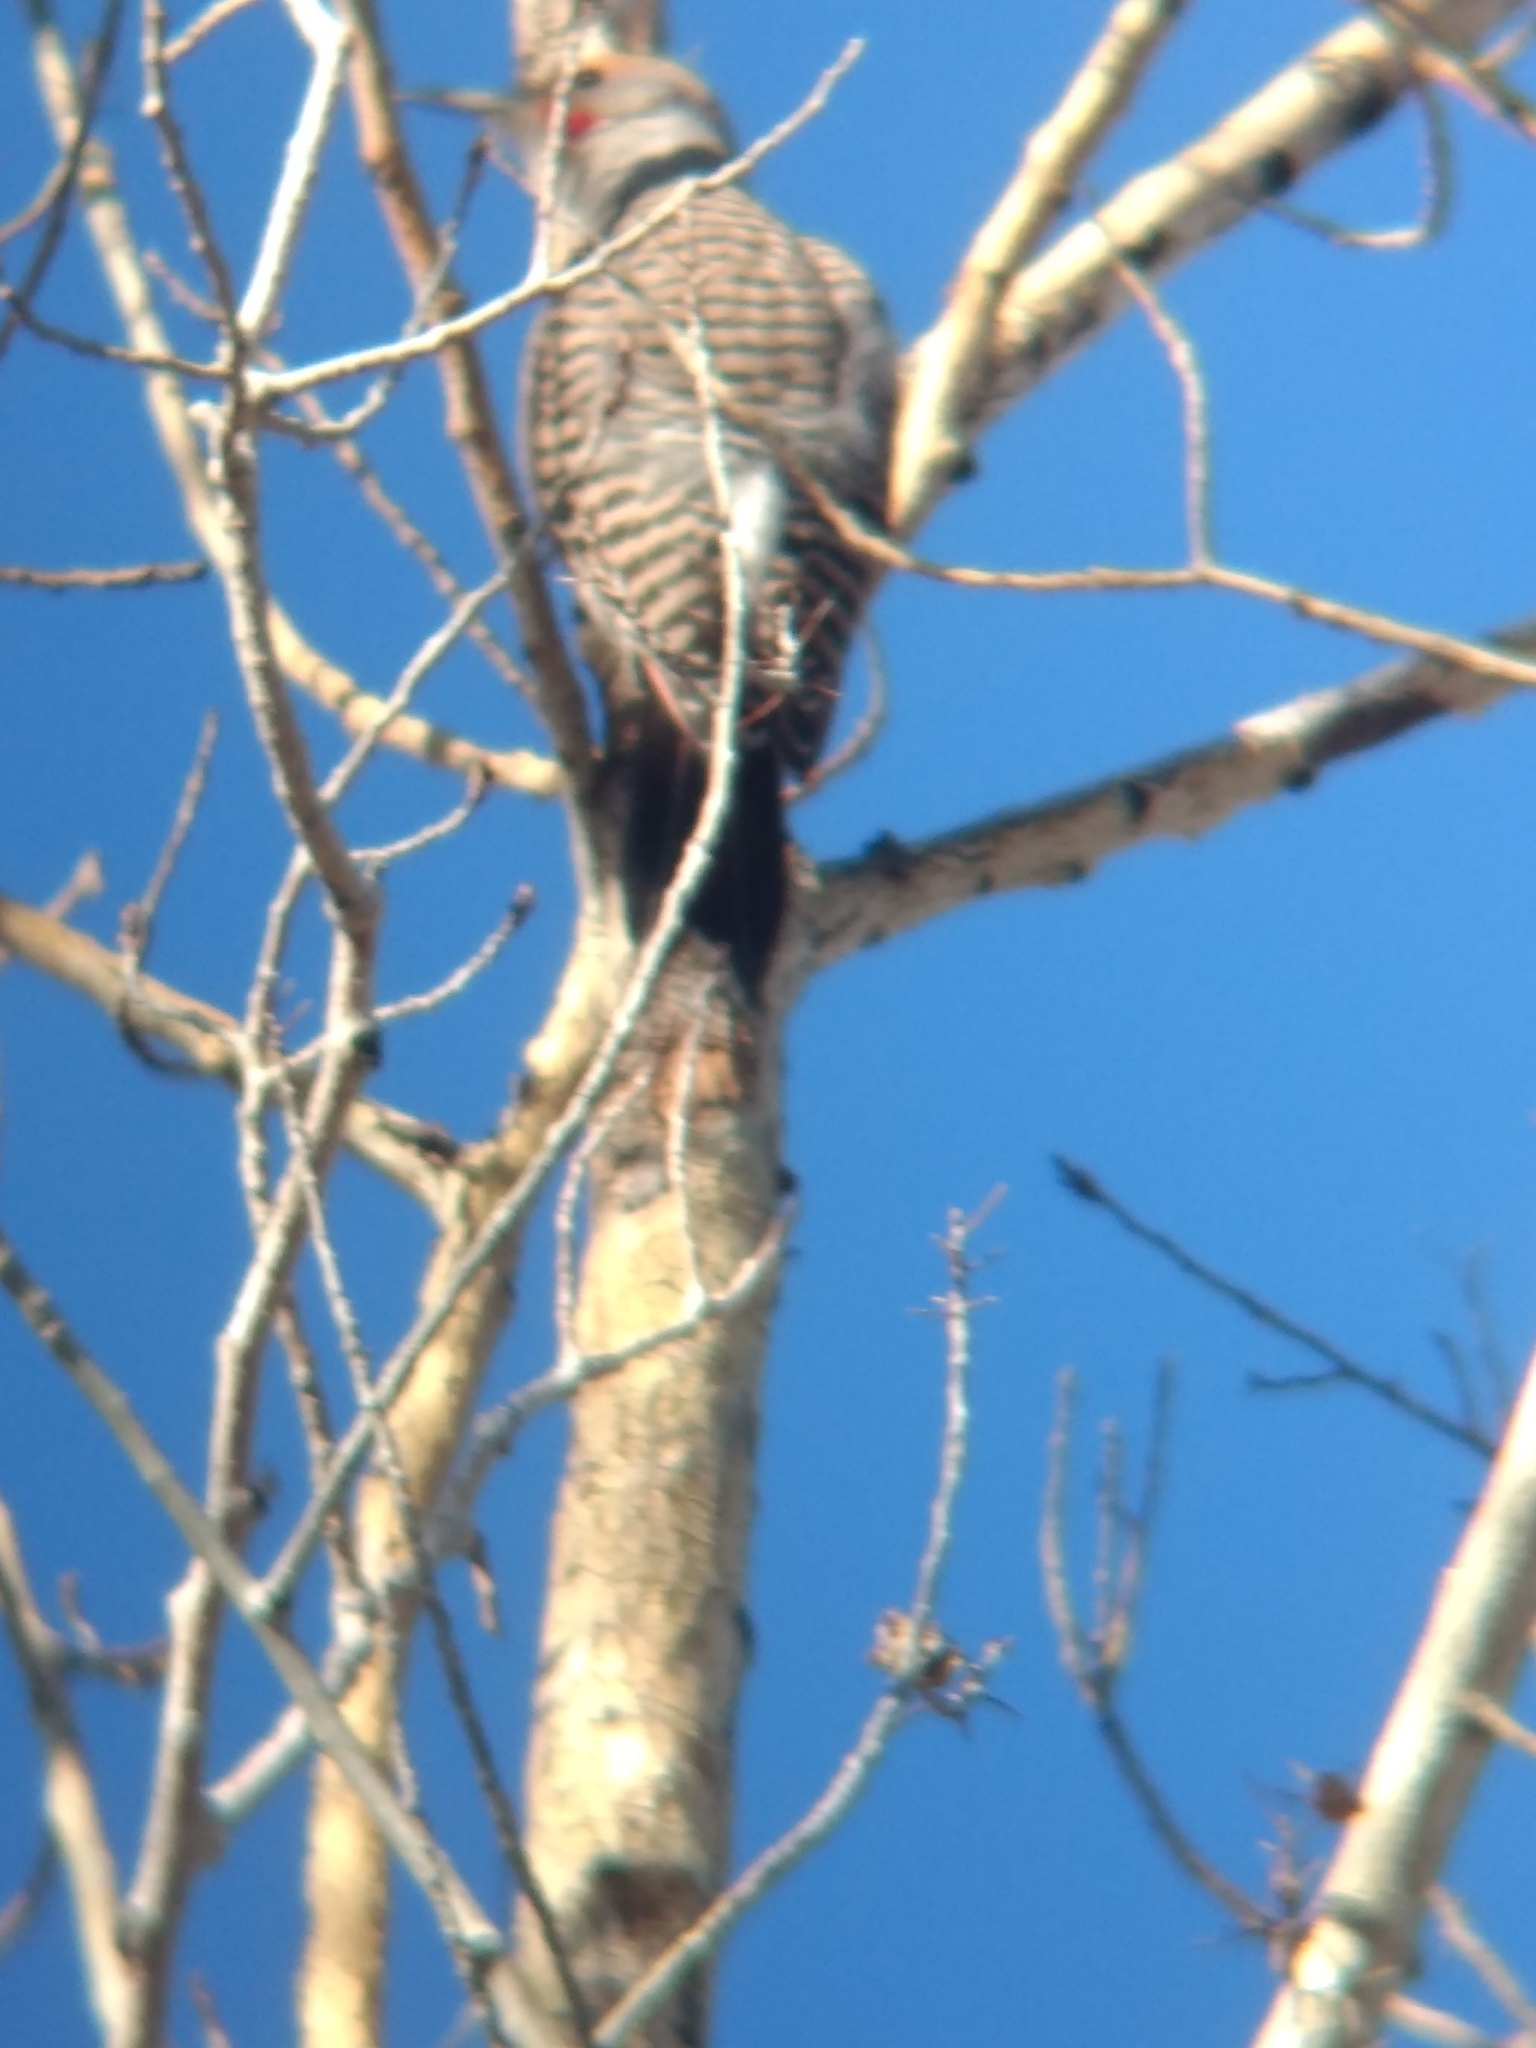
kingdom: Animalia
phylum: Chordata
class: Aves
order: Piciformes
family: Picidae
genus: Colaptes
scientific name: Colaptes auratus
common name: Northern flicker
